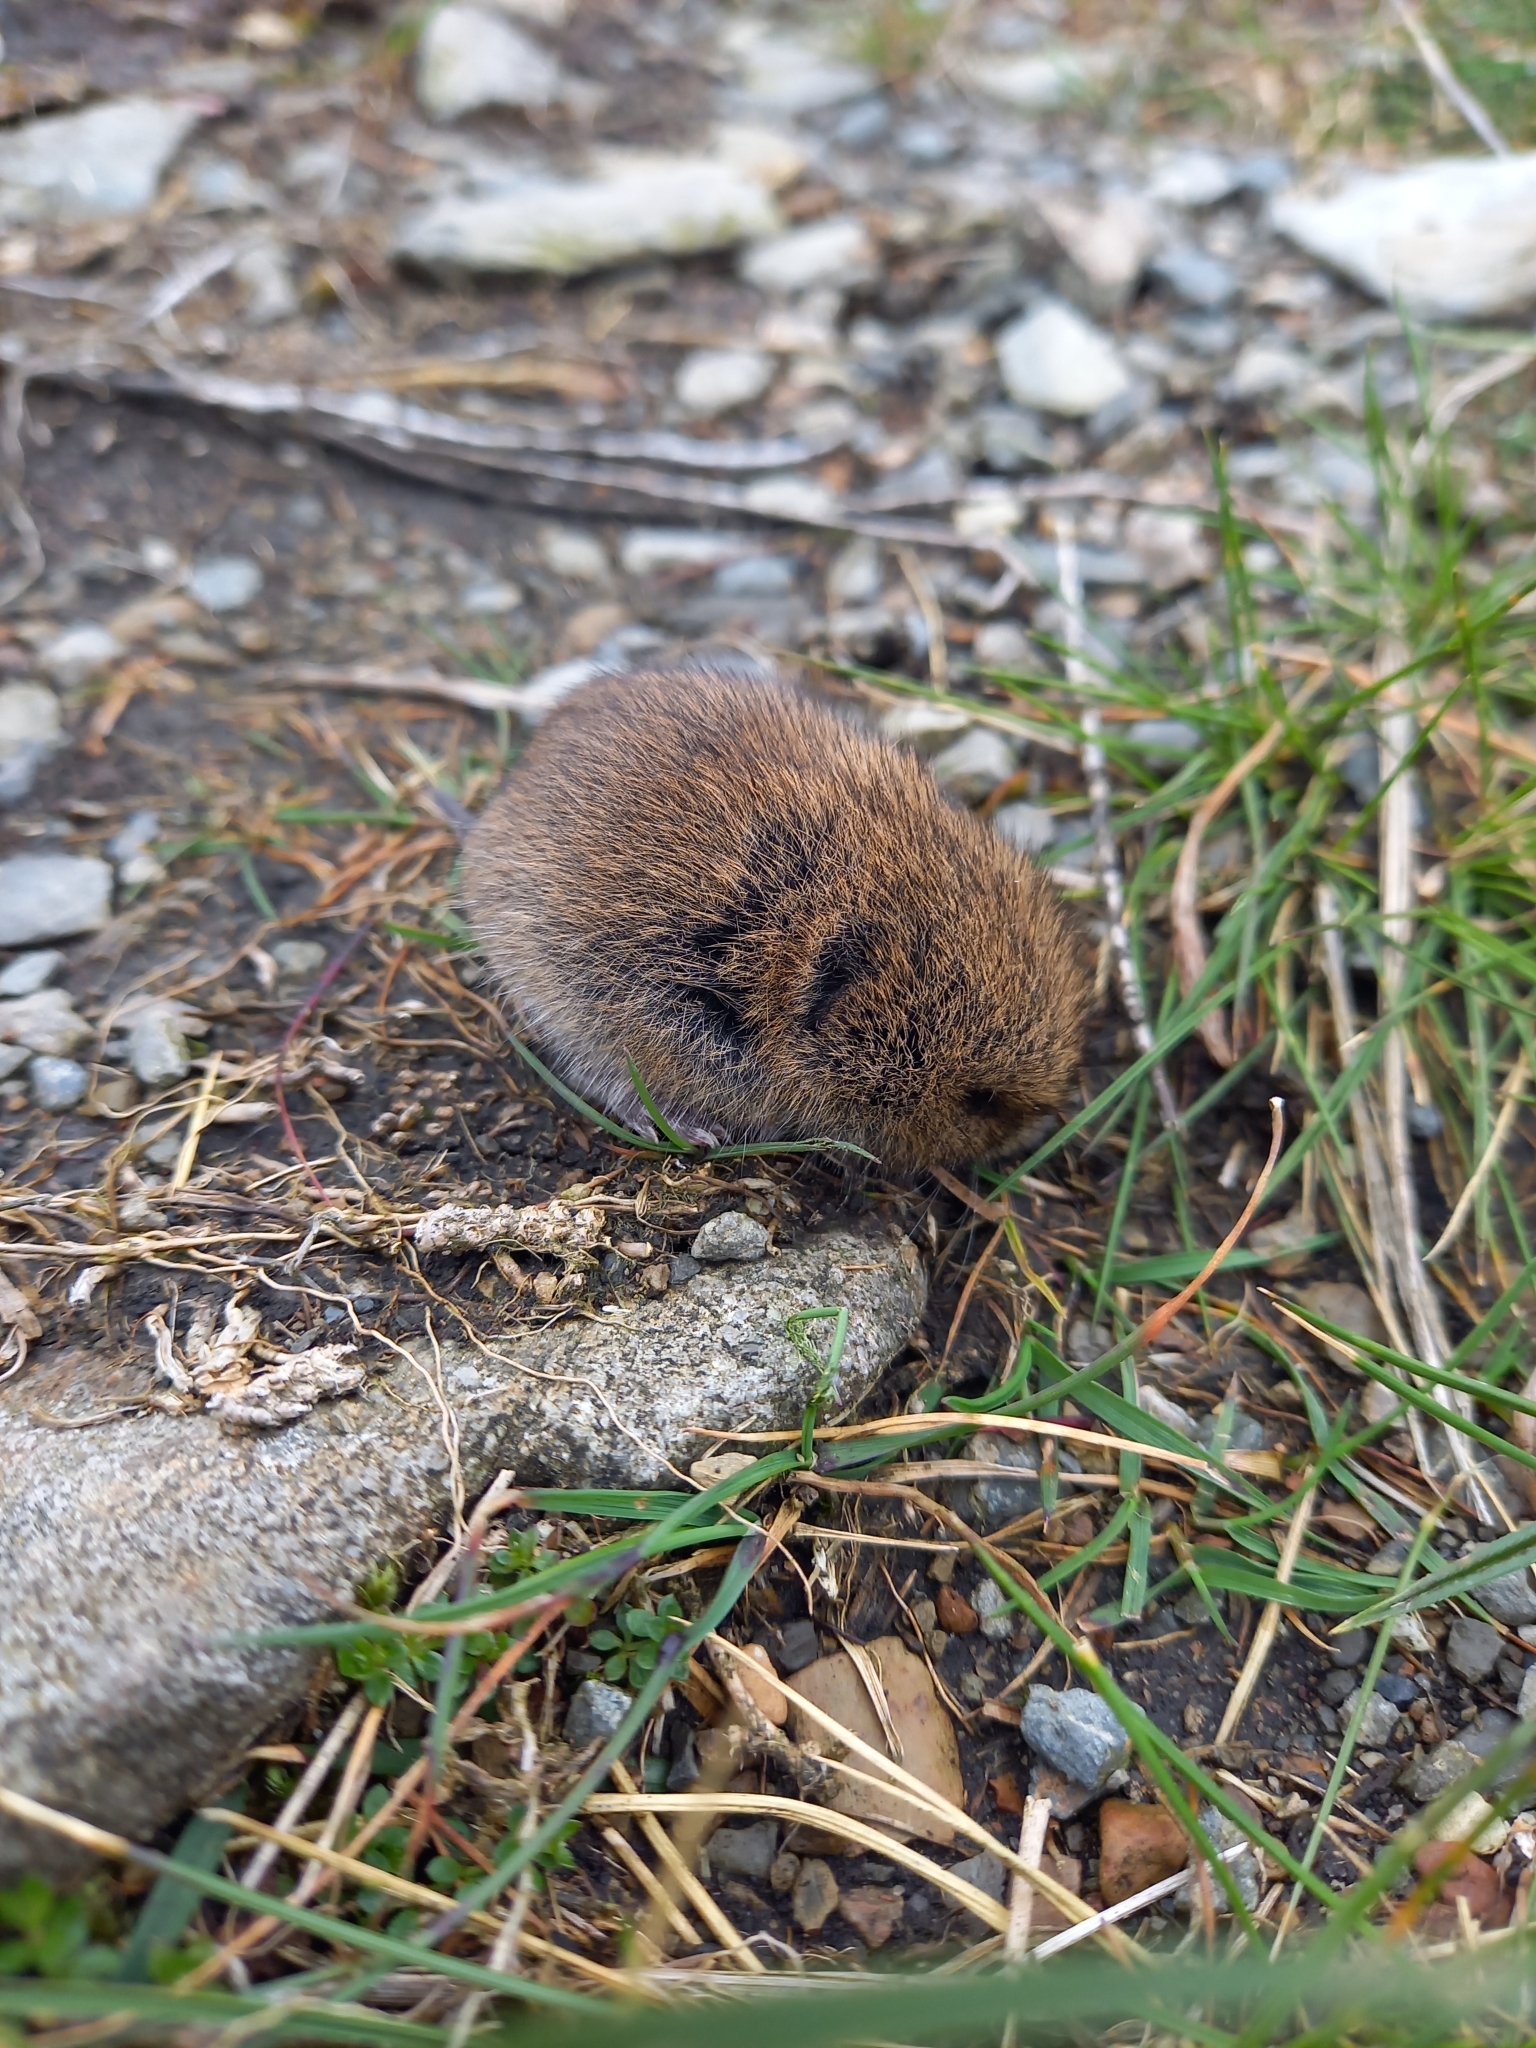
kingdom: Animalia
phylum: Chordata
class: Mammalia
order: Rodentia
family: Cricetidae
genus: Microtus
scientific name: Microtus agrestis
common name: Field vole
